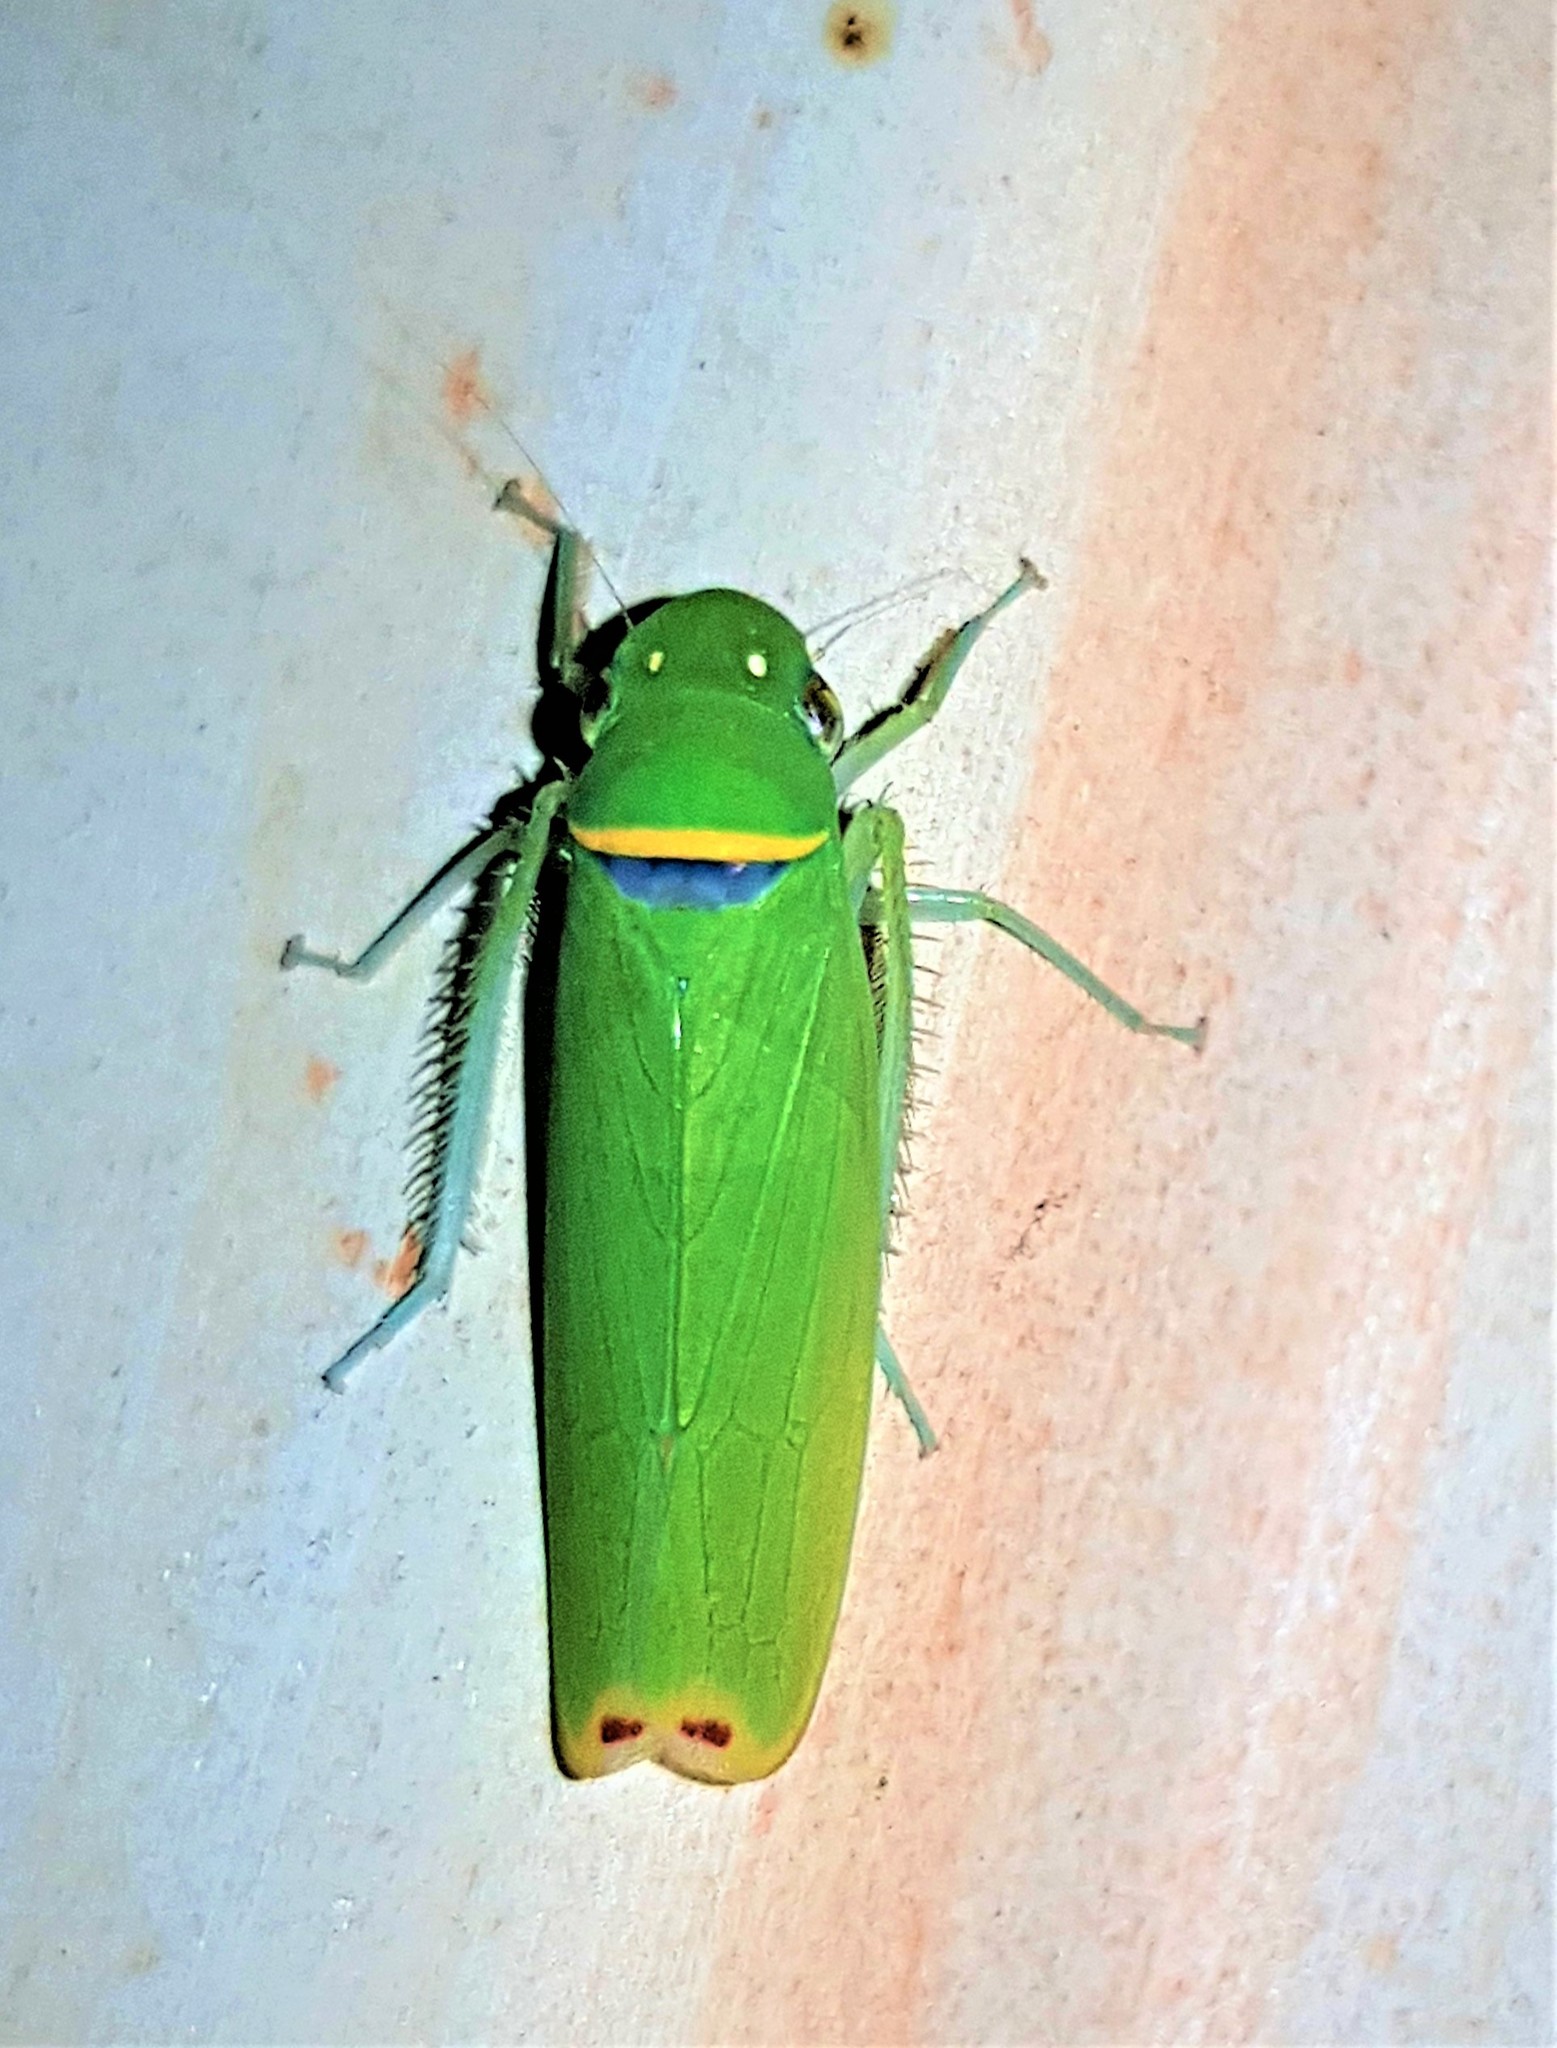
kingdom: Animalia
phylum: Arthropoda
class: Insecta
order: Hemiptera
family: Cicadellidae
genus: Alocha
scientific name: Alocha sordida
